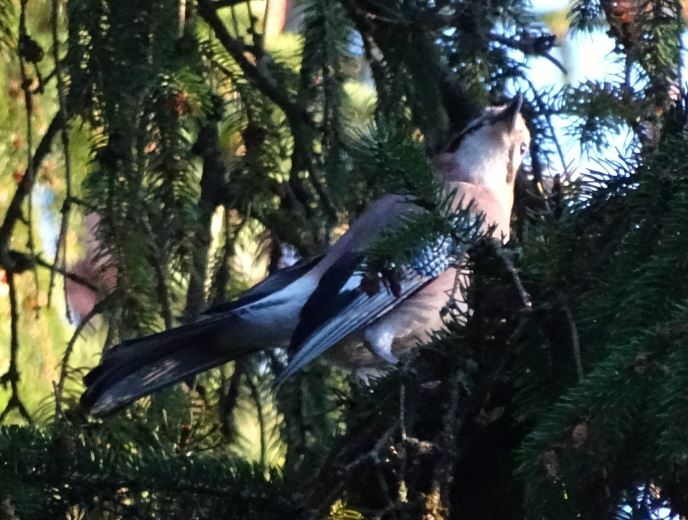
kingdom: Animalia
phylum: Chordata
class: Aves
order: Passeriformes
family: Corvidae
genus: Garrulus
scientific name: Garrulus glandarius
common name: Eurasian jay
